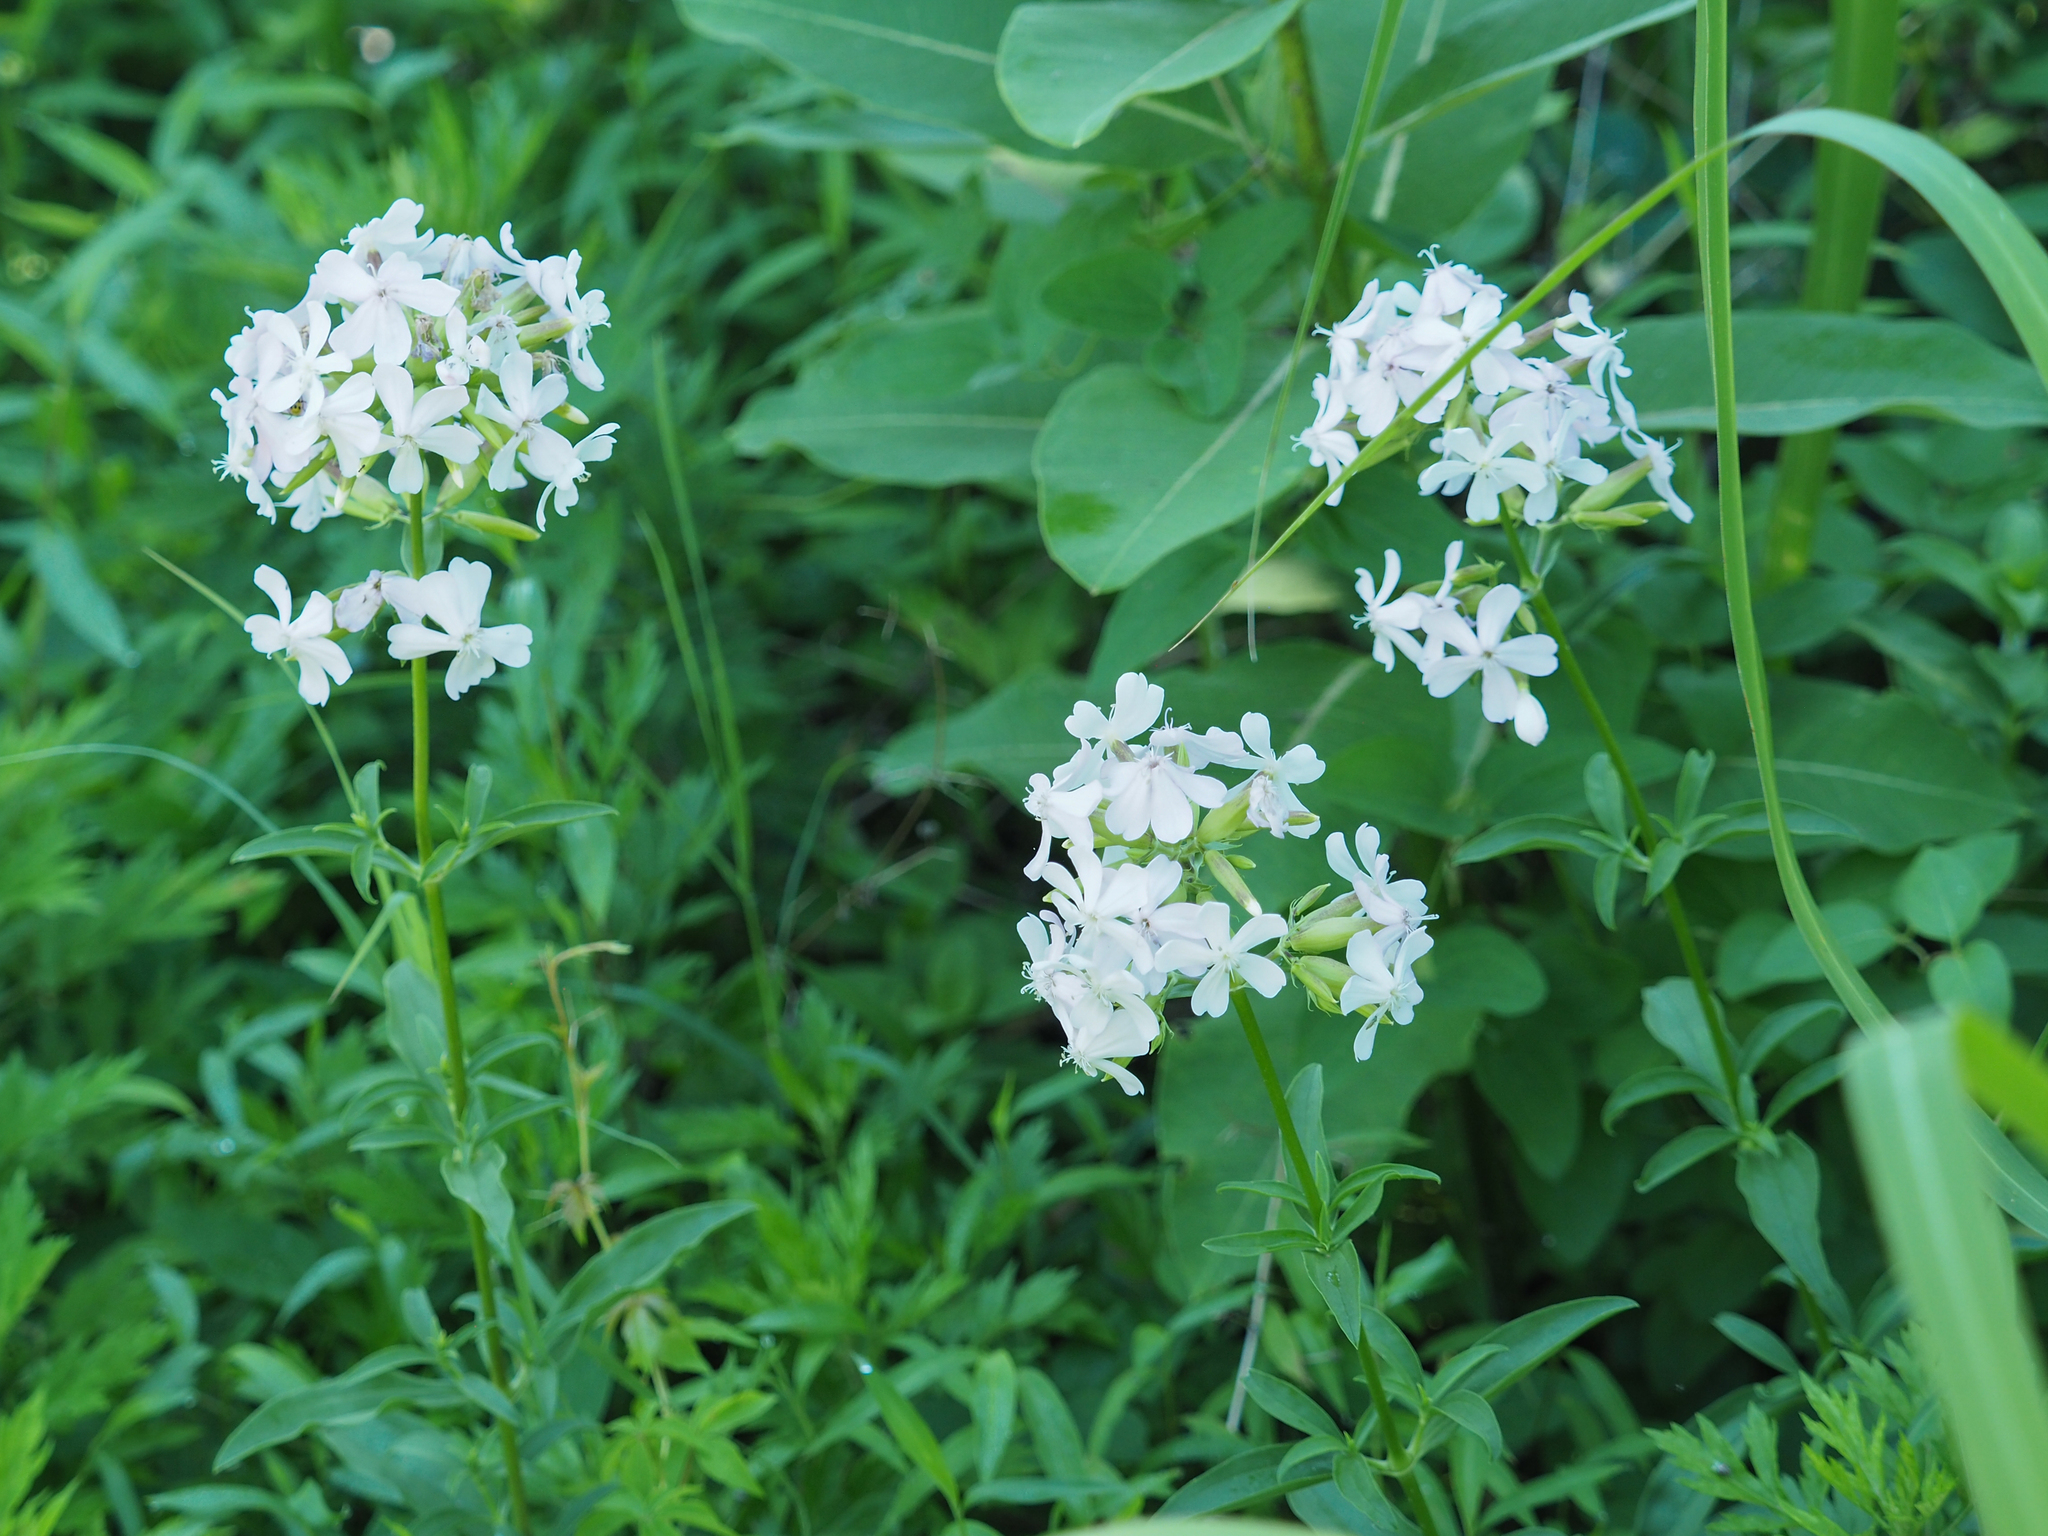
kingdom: Plantae
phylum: Tracheophyta
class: Magnoliopsida
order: Caryophyllales
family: Caryophyllaceae
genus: Saponaria
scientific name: Saponaria officinalis
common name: Soapwort
